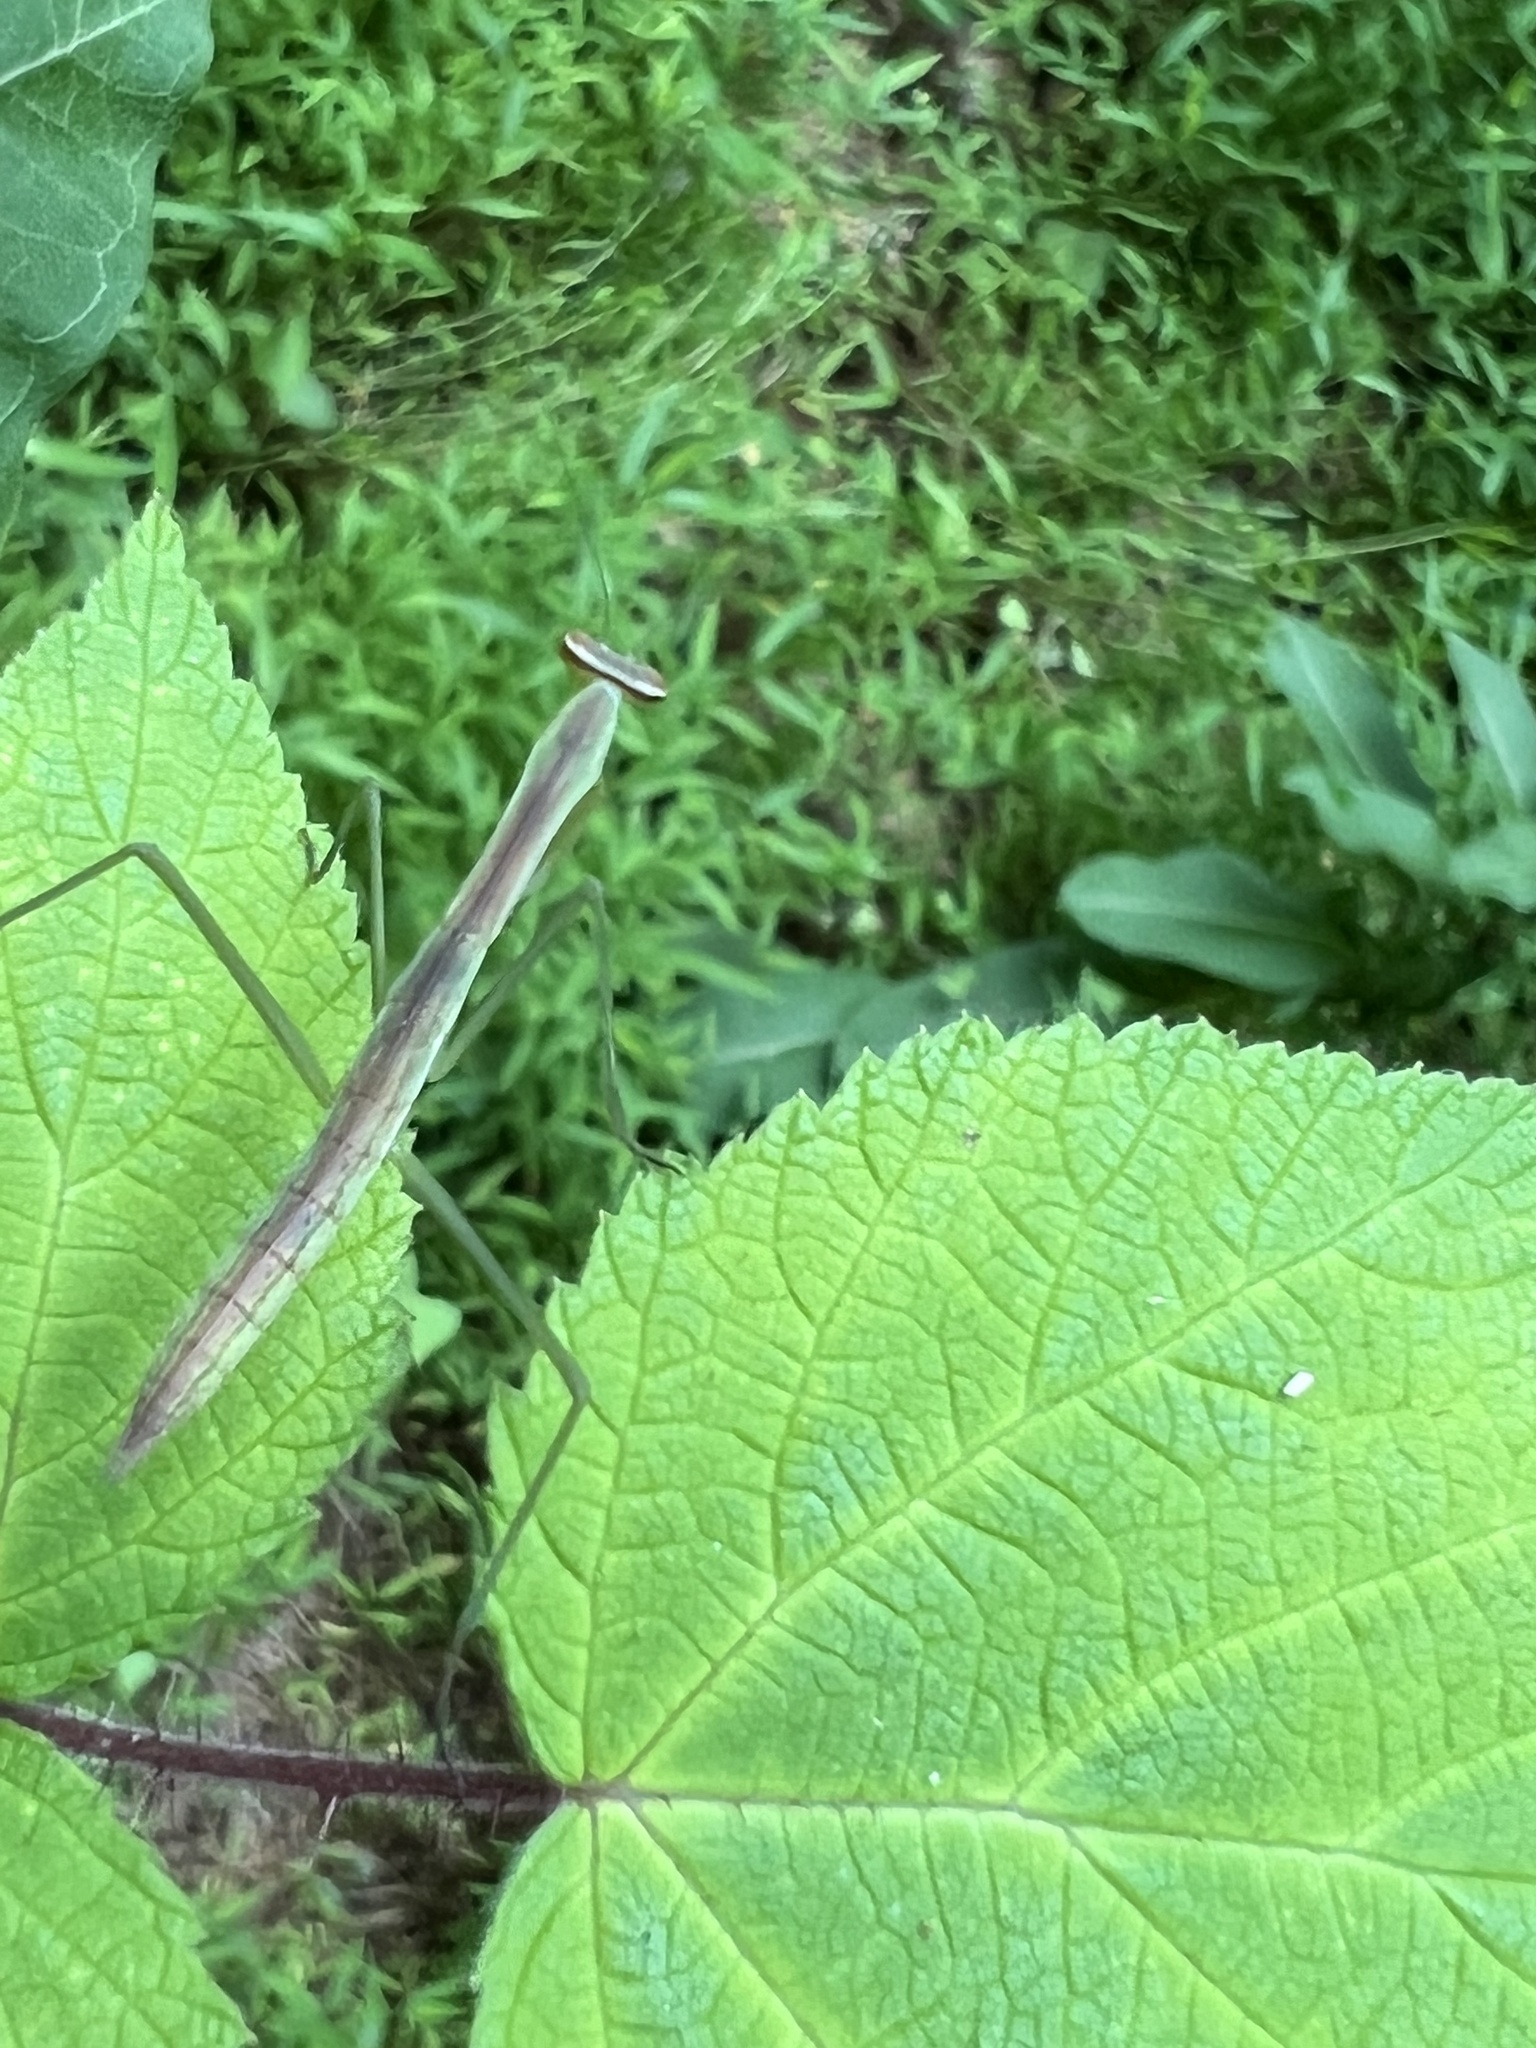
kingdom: Animalia
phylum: Arthropoda
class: Insecta
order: Mantodea
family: Mantidae
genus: Tenodera
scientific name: Tenodera sinensis
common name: Chinese mantis
